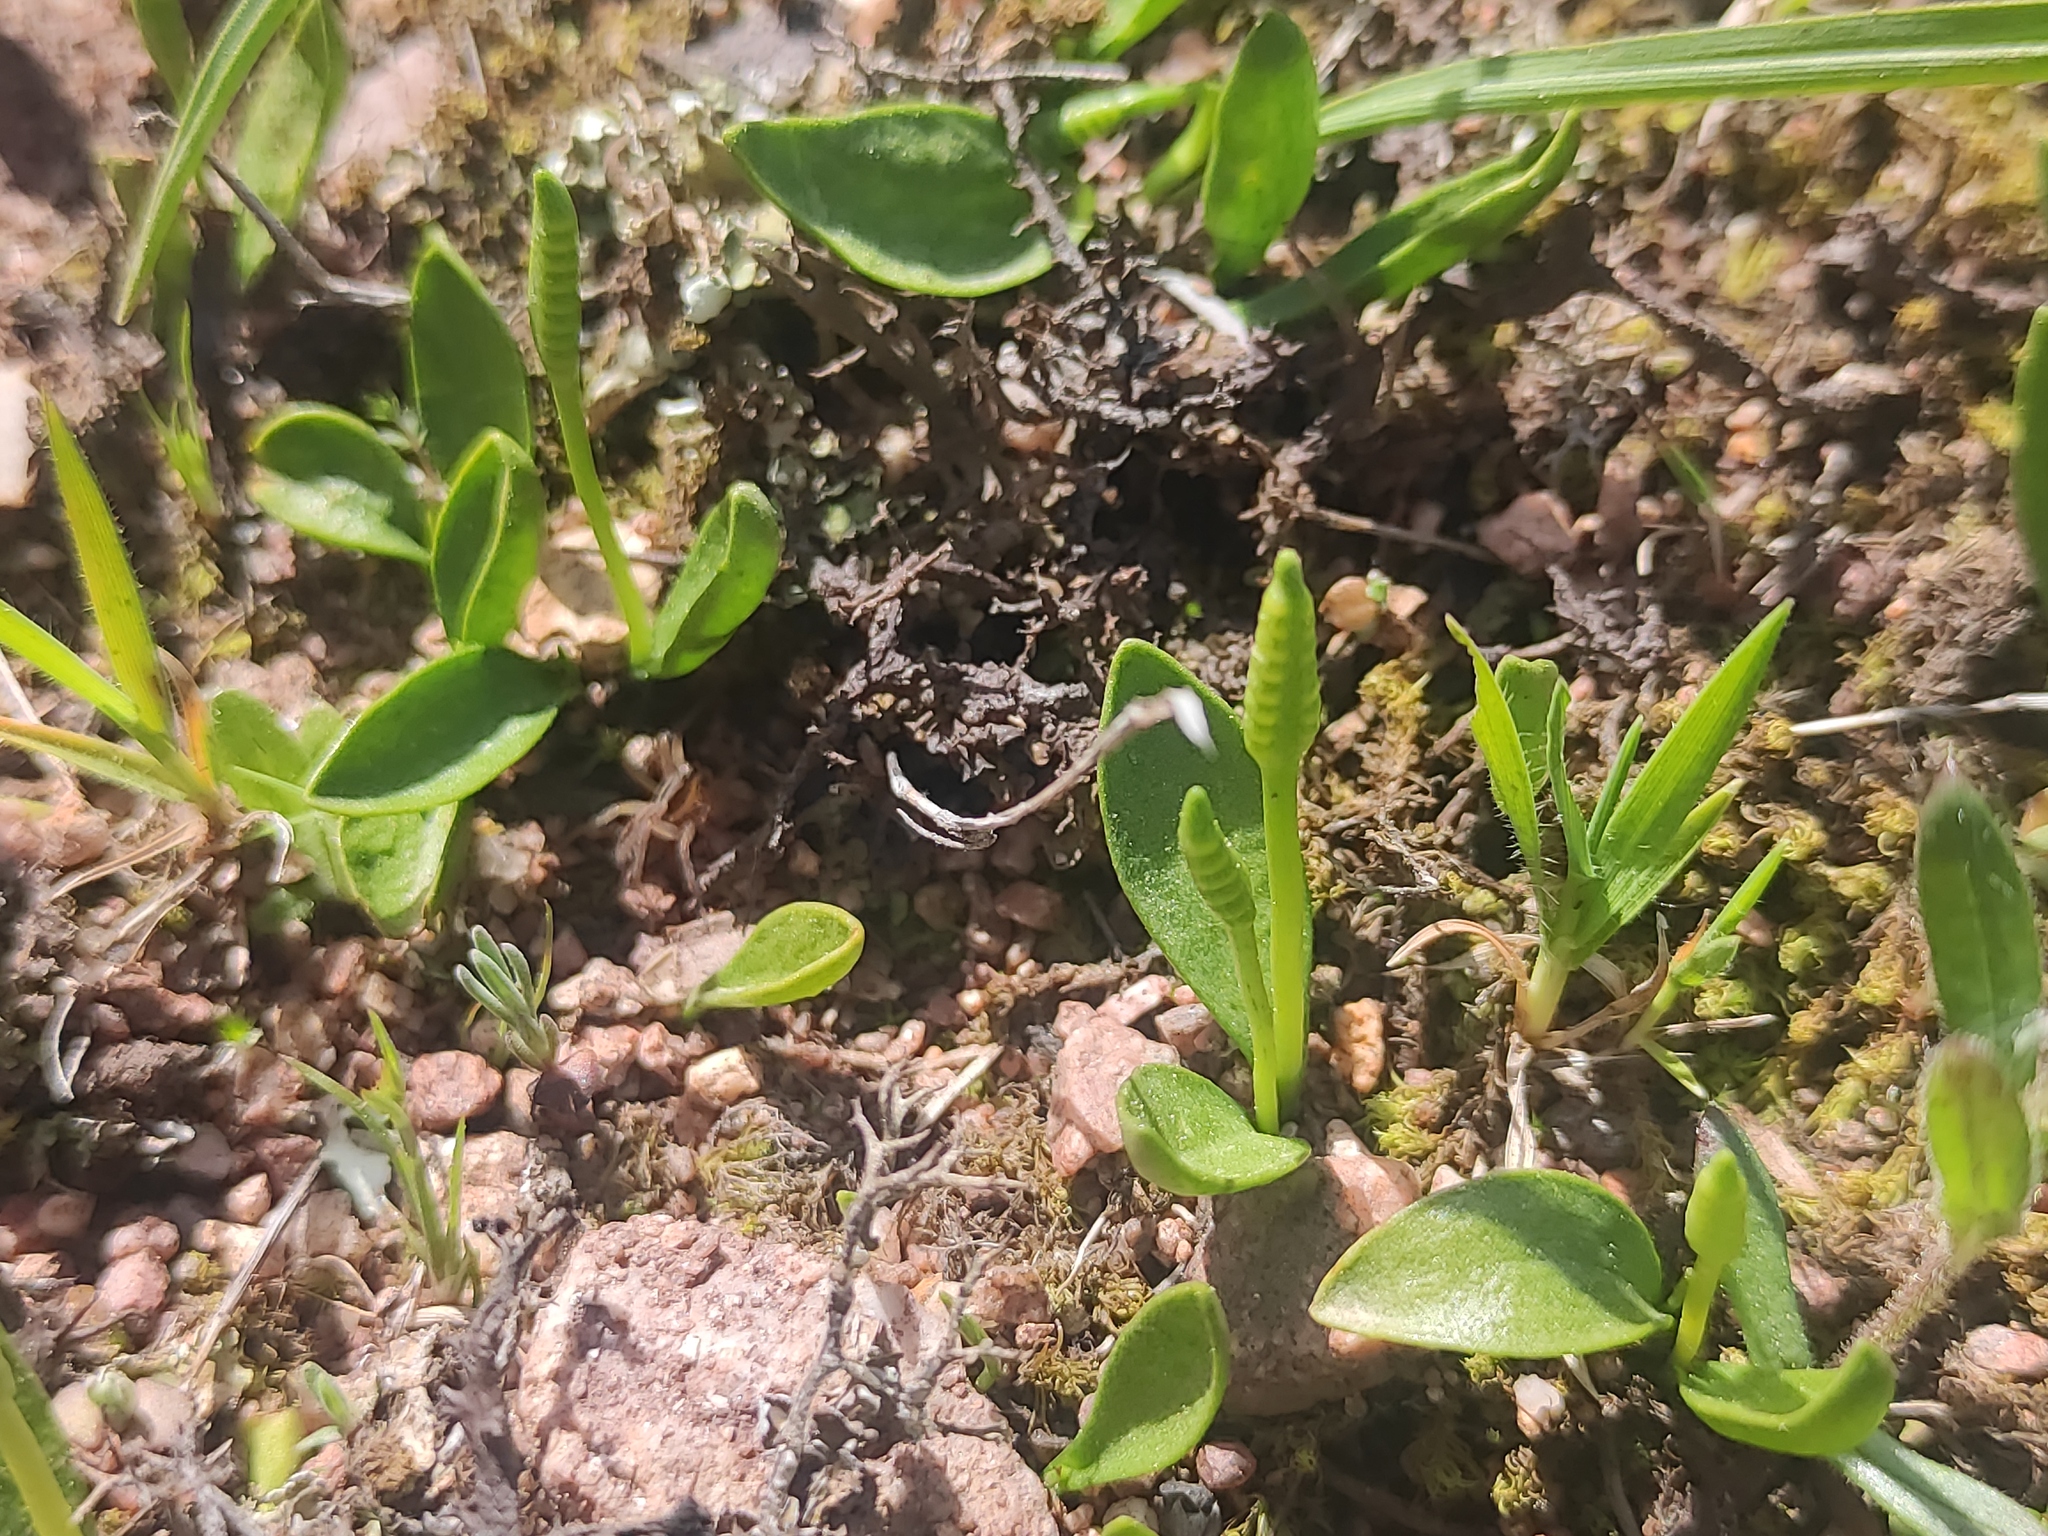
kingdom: Plantae
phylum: Tracheophyta
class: Polypodiopsida
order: Ophioglossales
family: Ophioglossaceae
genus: Ophioglossum
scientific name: Ophioglossum azoricum
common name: Small adder's-tongue
